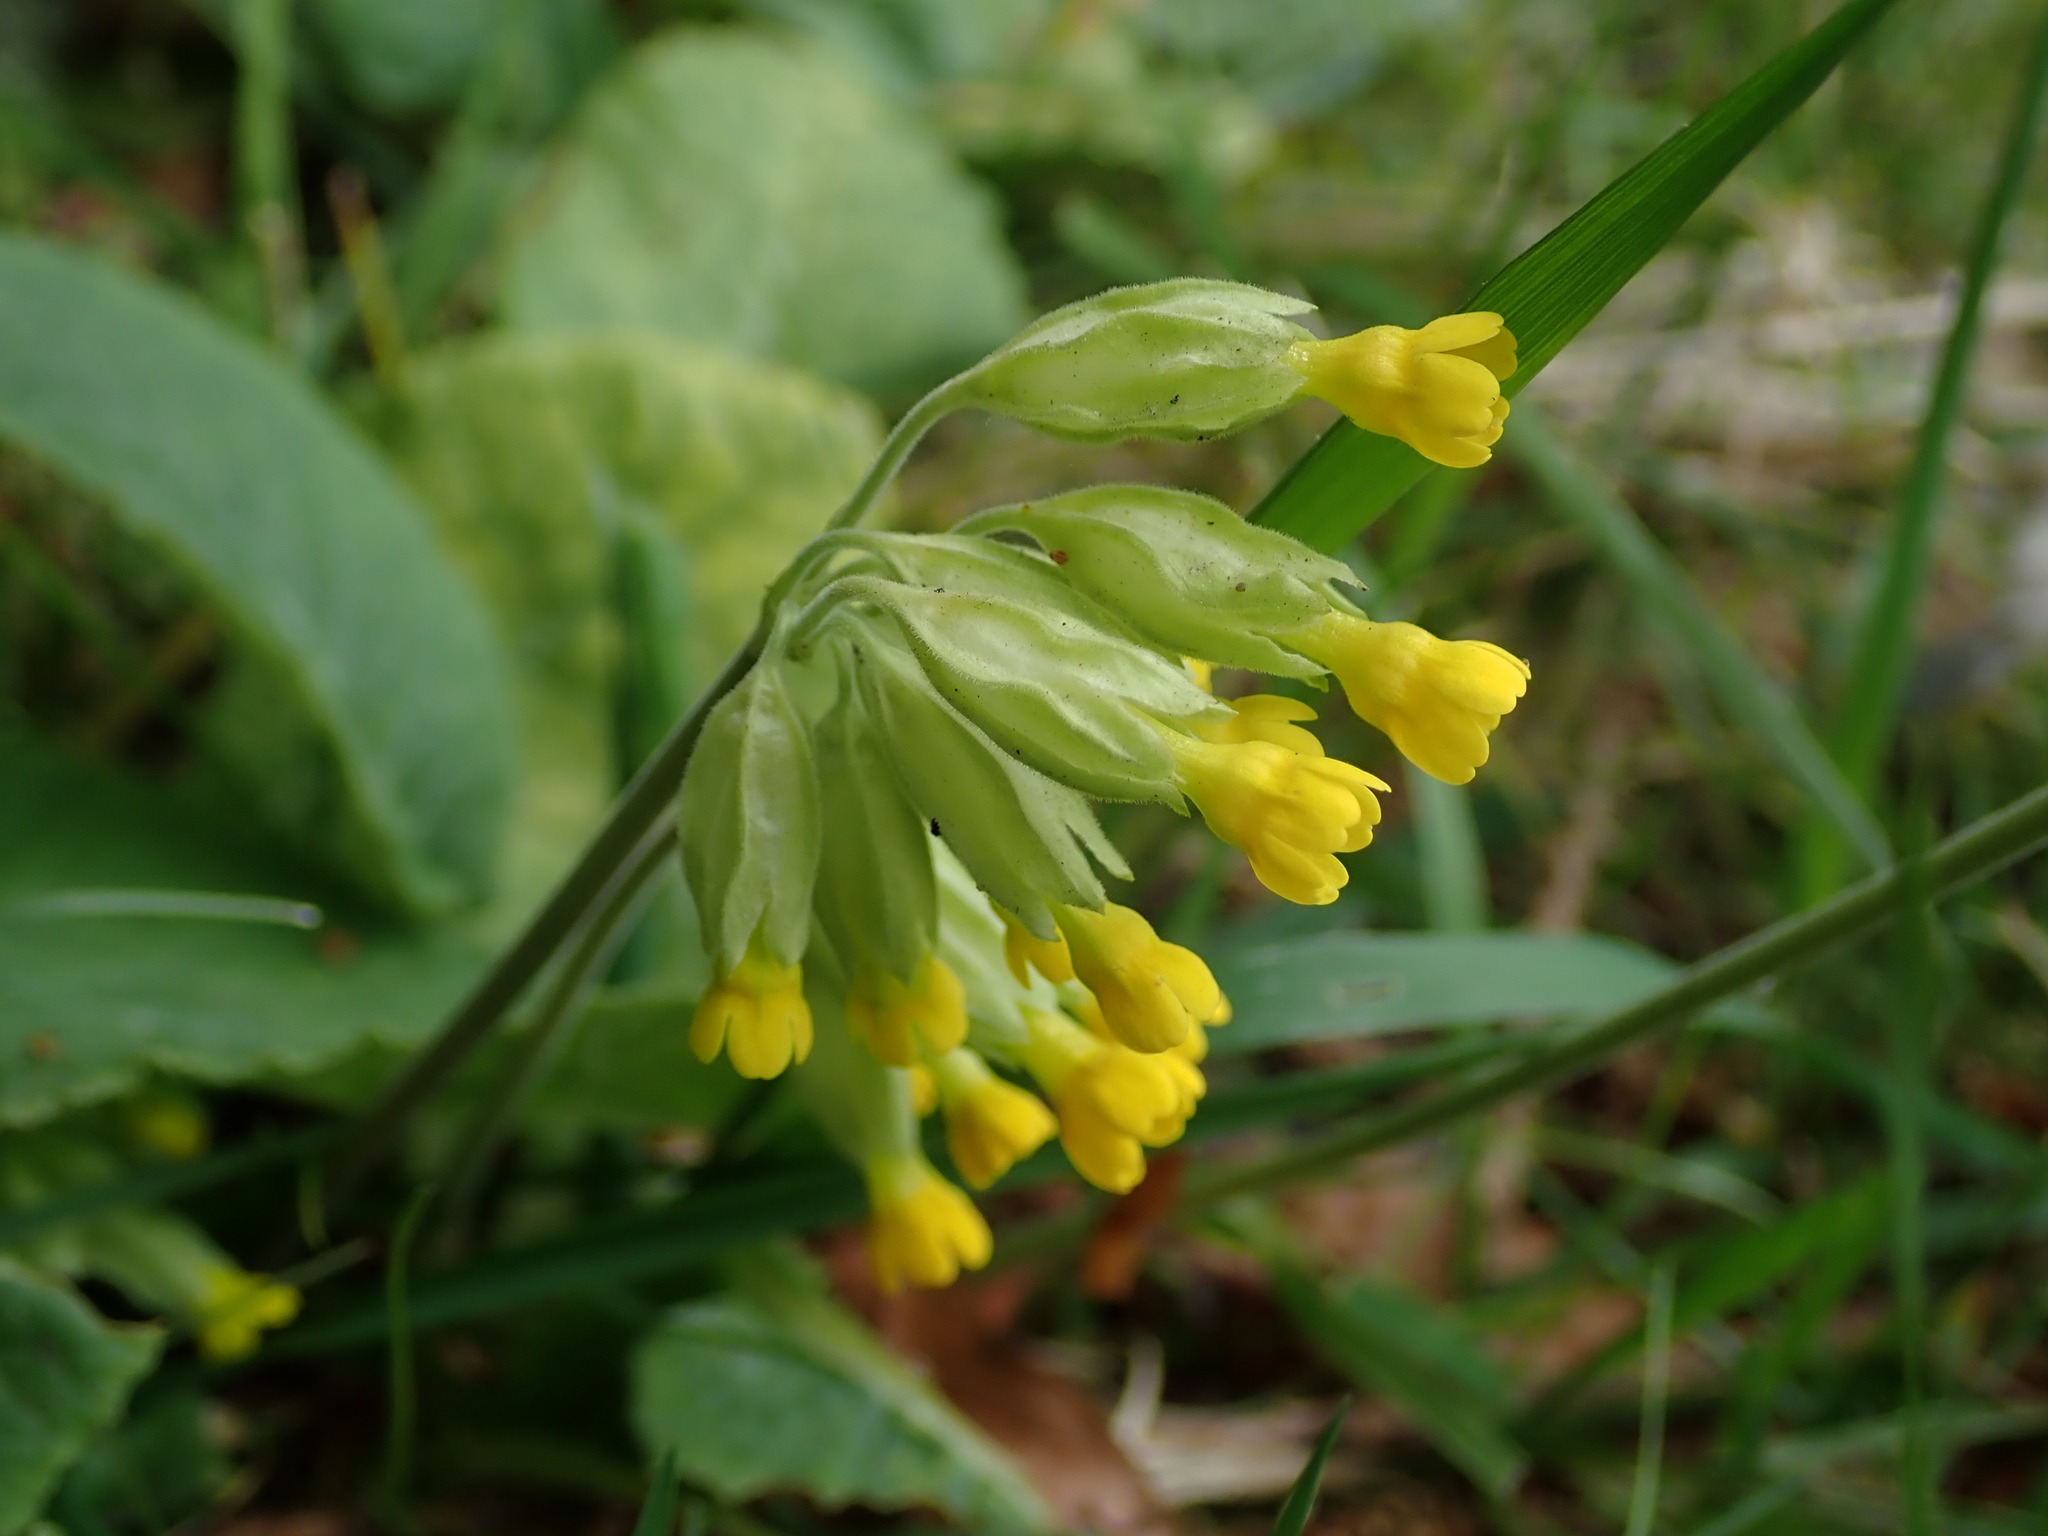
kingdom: Plantae
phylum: Tracheophyta
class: Magnoliopsida
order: Ericales
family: Primulaceae
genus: Primula
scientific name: Primula veris
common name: Cowslip
